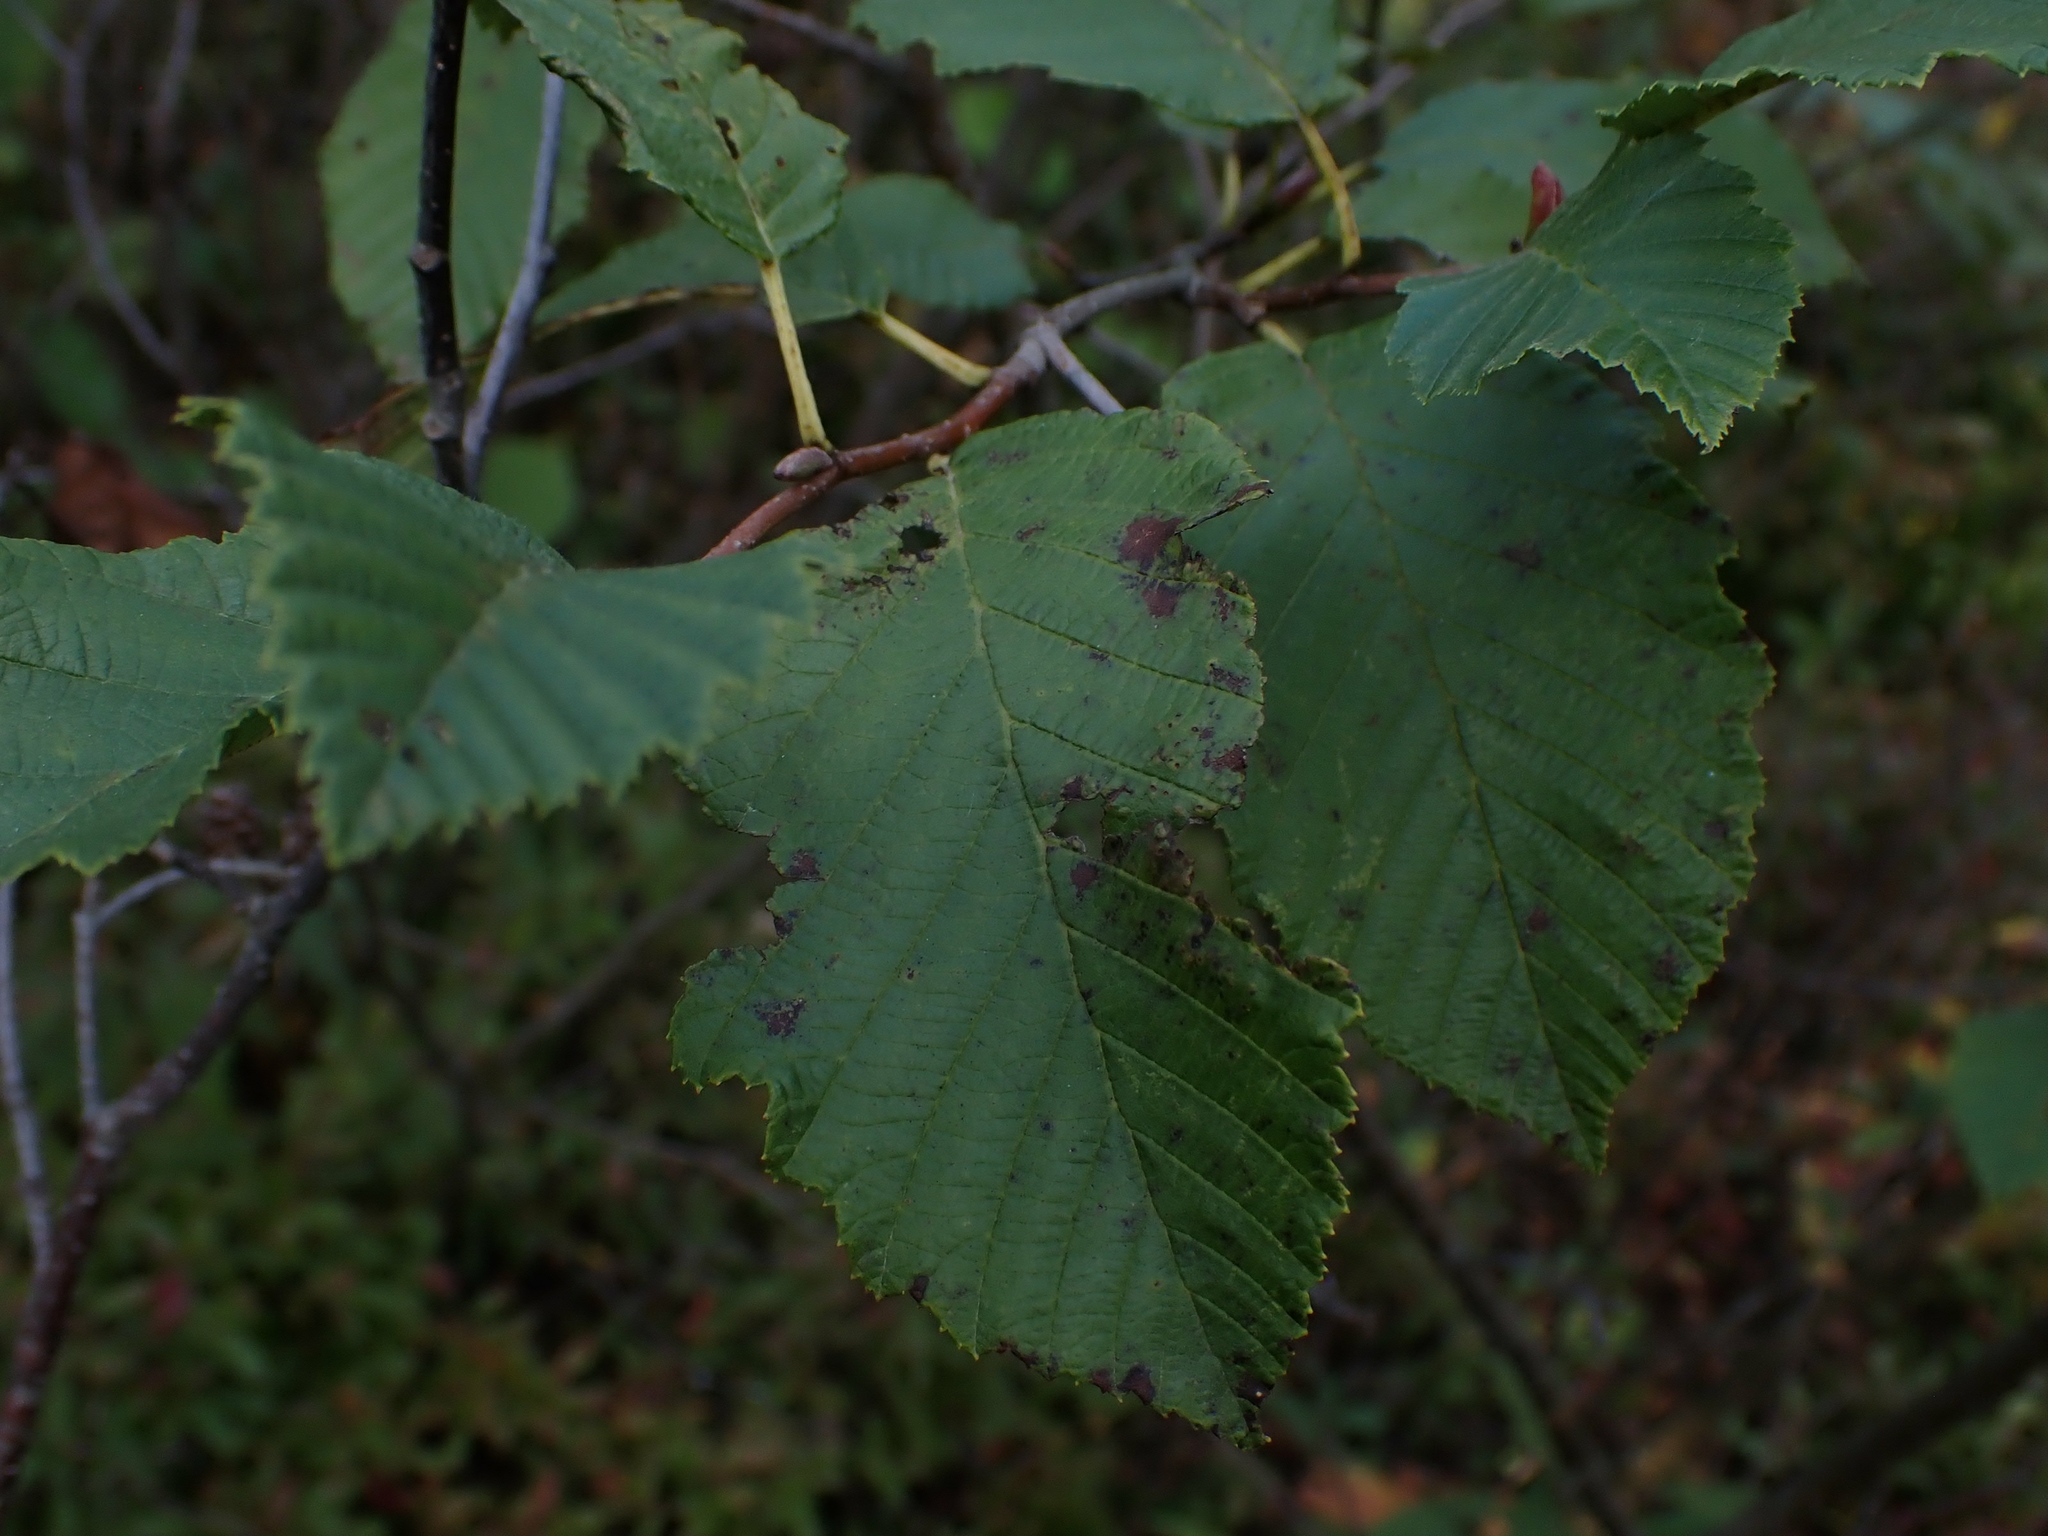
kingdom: Plantae
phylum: Tracheophyta
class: Magnoliopsida
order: Fagales
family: Betulaceae
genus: Alnus
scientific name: Alnus incana
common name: Grey alder
